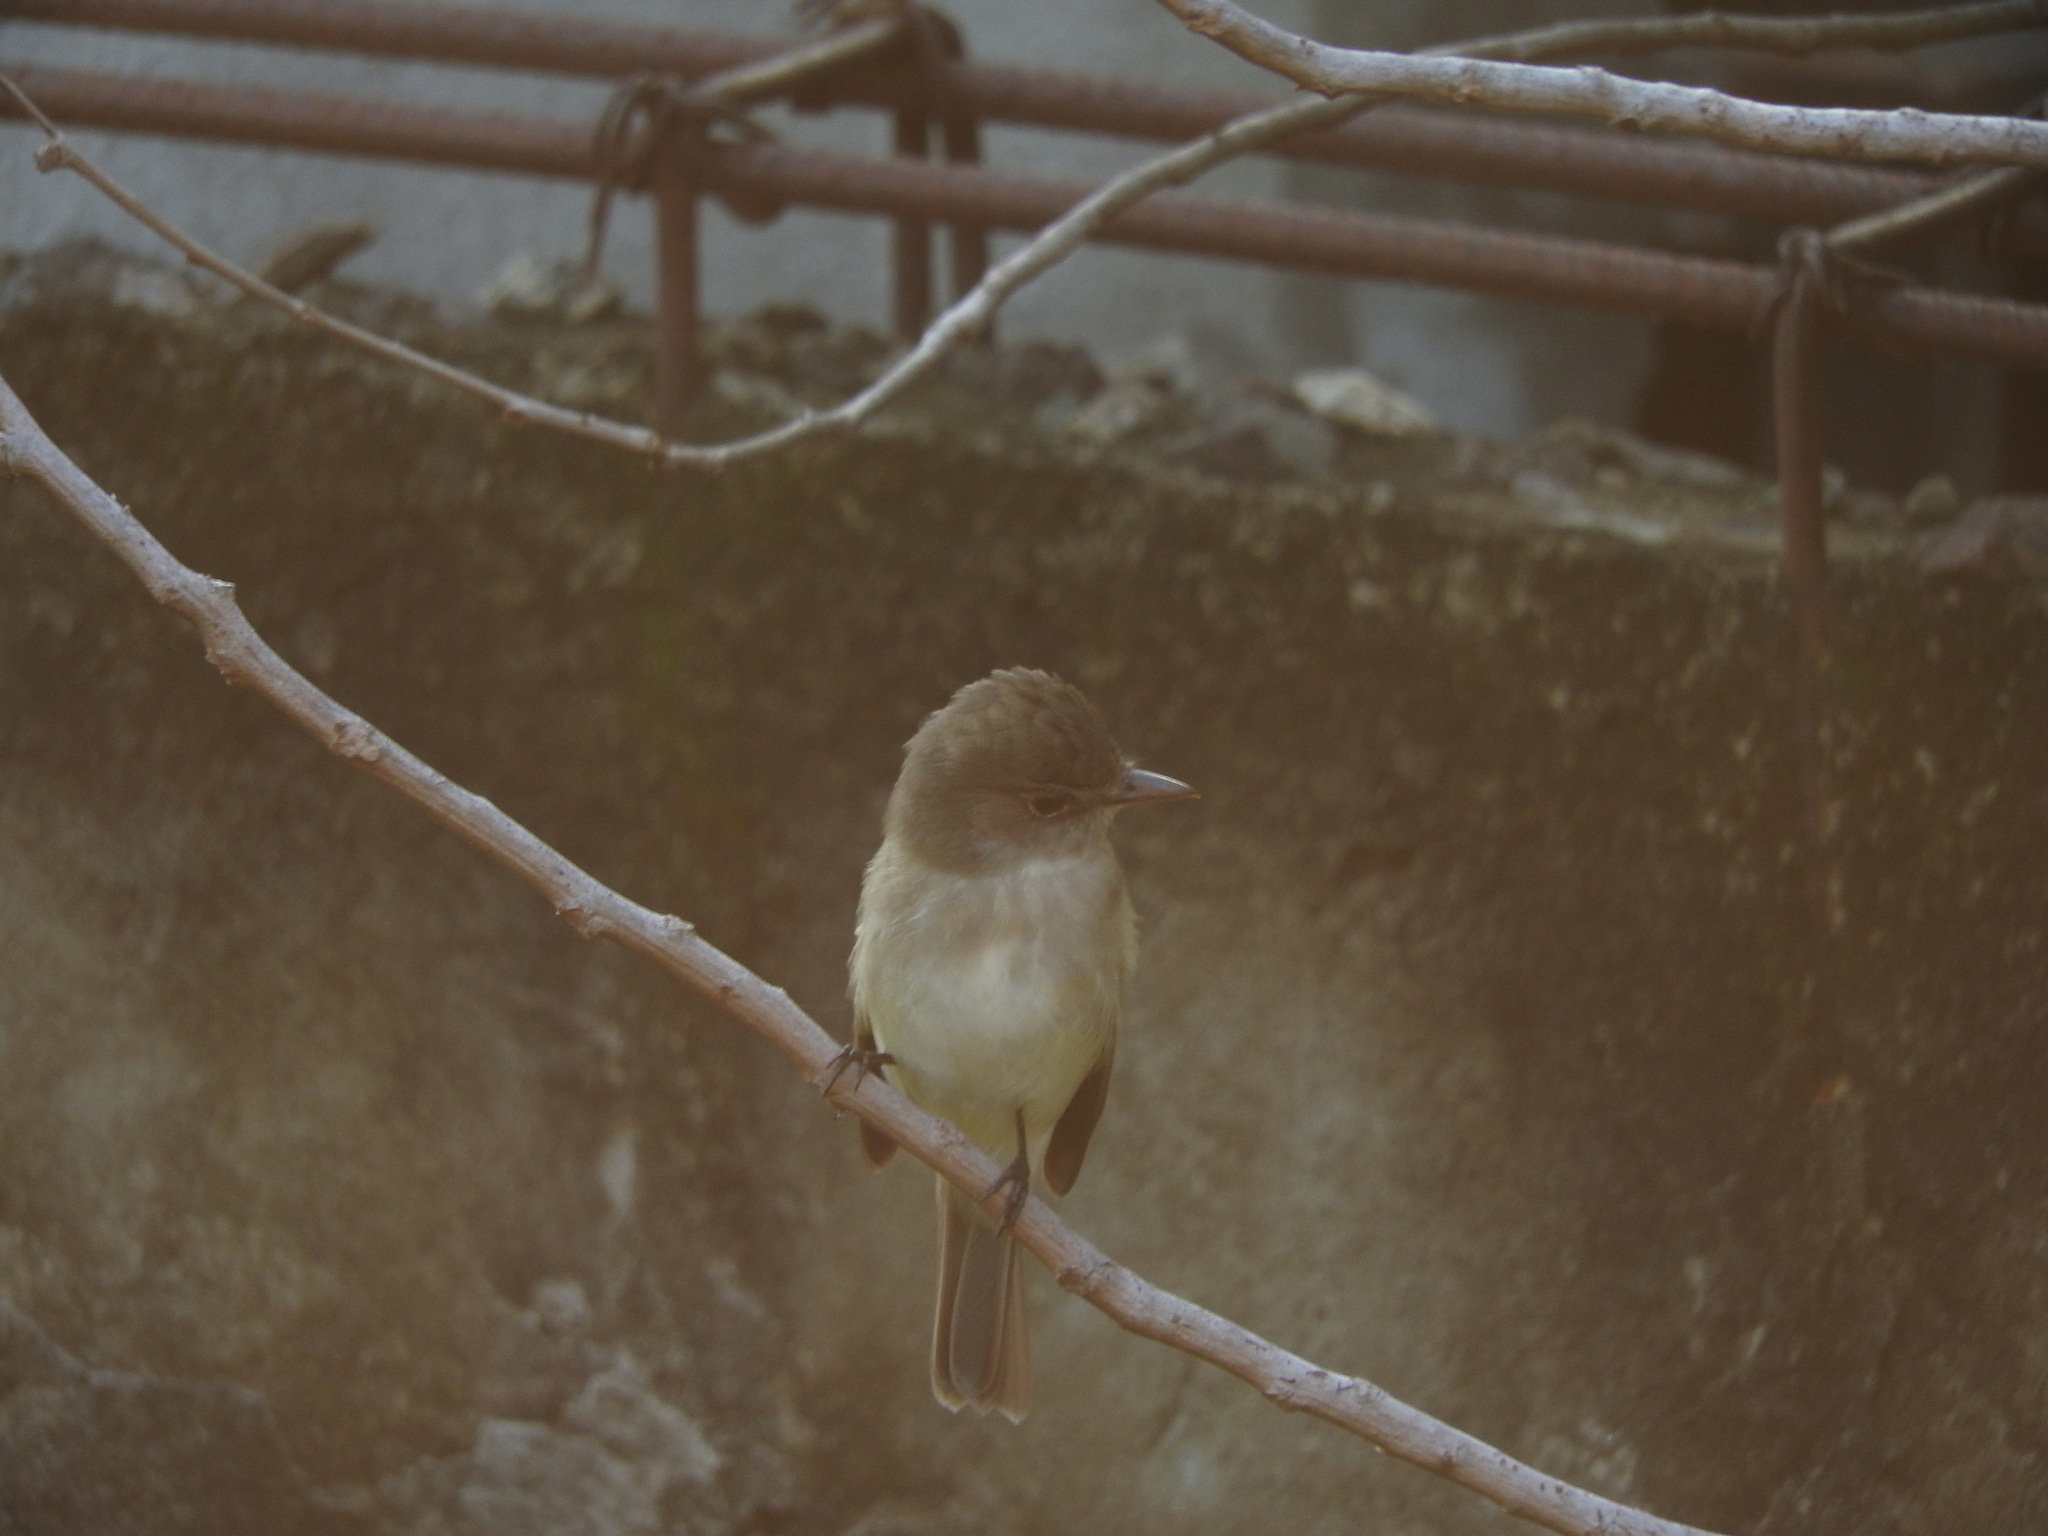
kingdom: Animalia
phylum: Chordata
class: Aves
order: Passeriformes
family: Tyrannidae
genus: Empidonax
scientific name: Empidonax traillii
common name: Willow flycatcher
